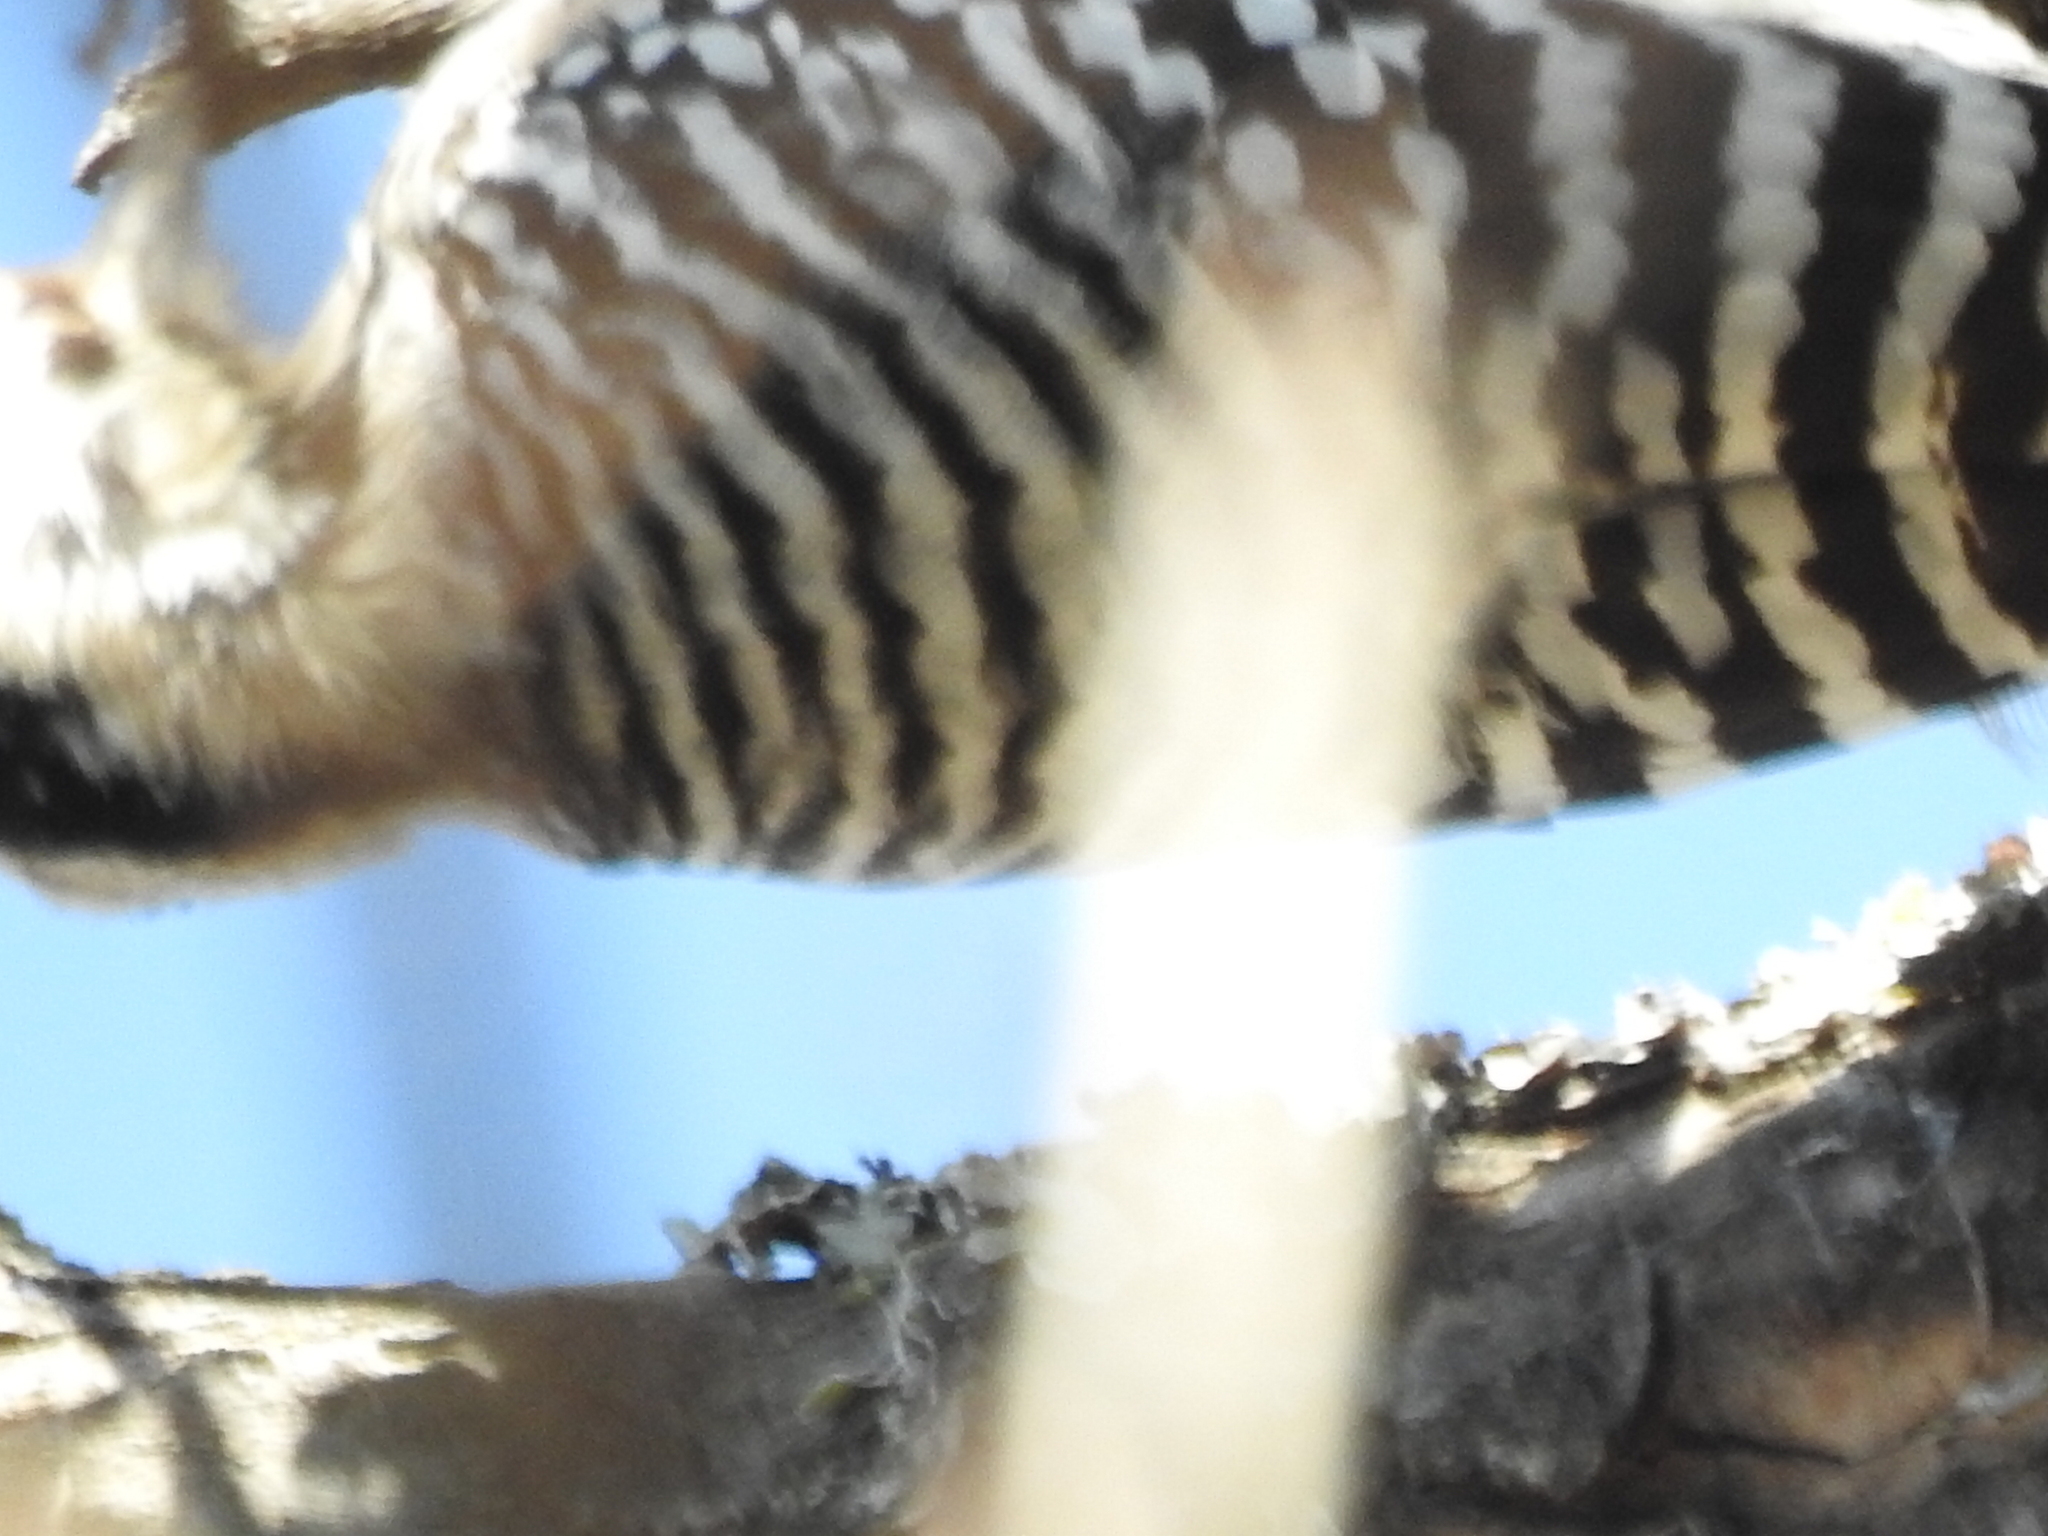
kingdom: Animalia
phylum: Chordata
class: Aves
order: Piciformes
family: Picidae
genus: Dryobates
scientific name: Dryobates scalaris
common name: Ladder-backed woodpecker
